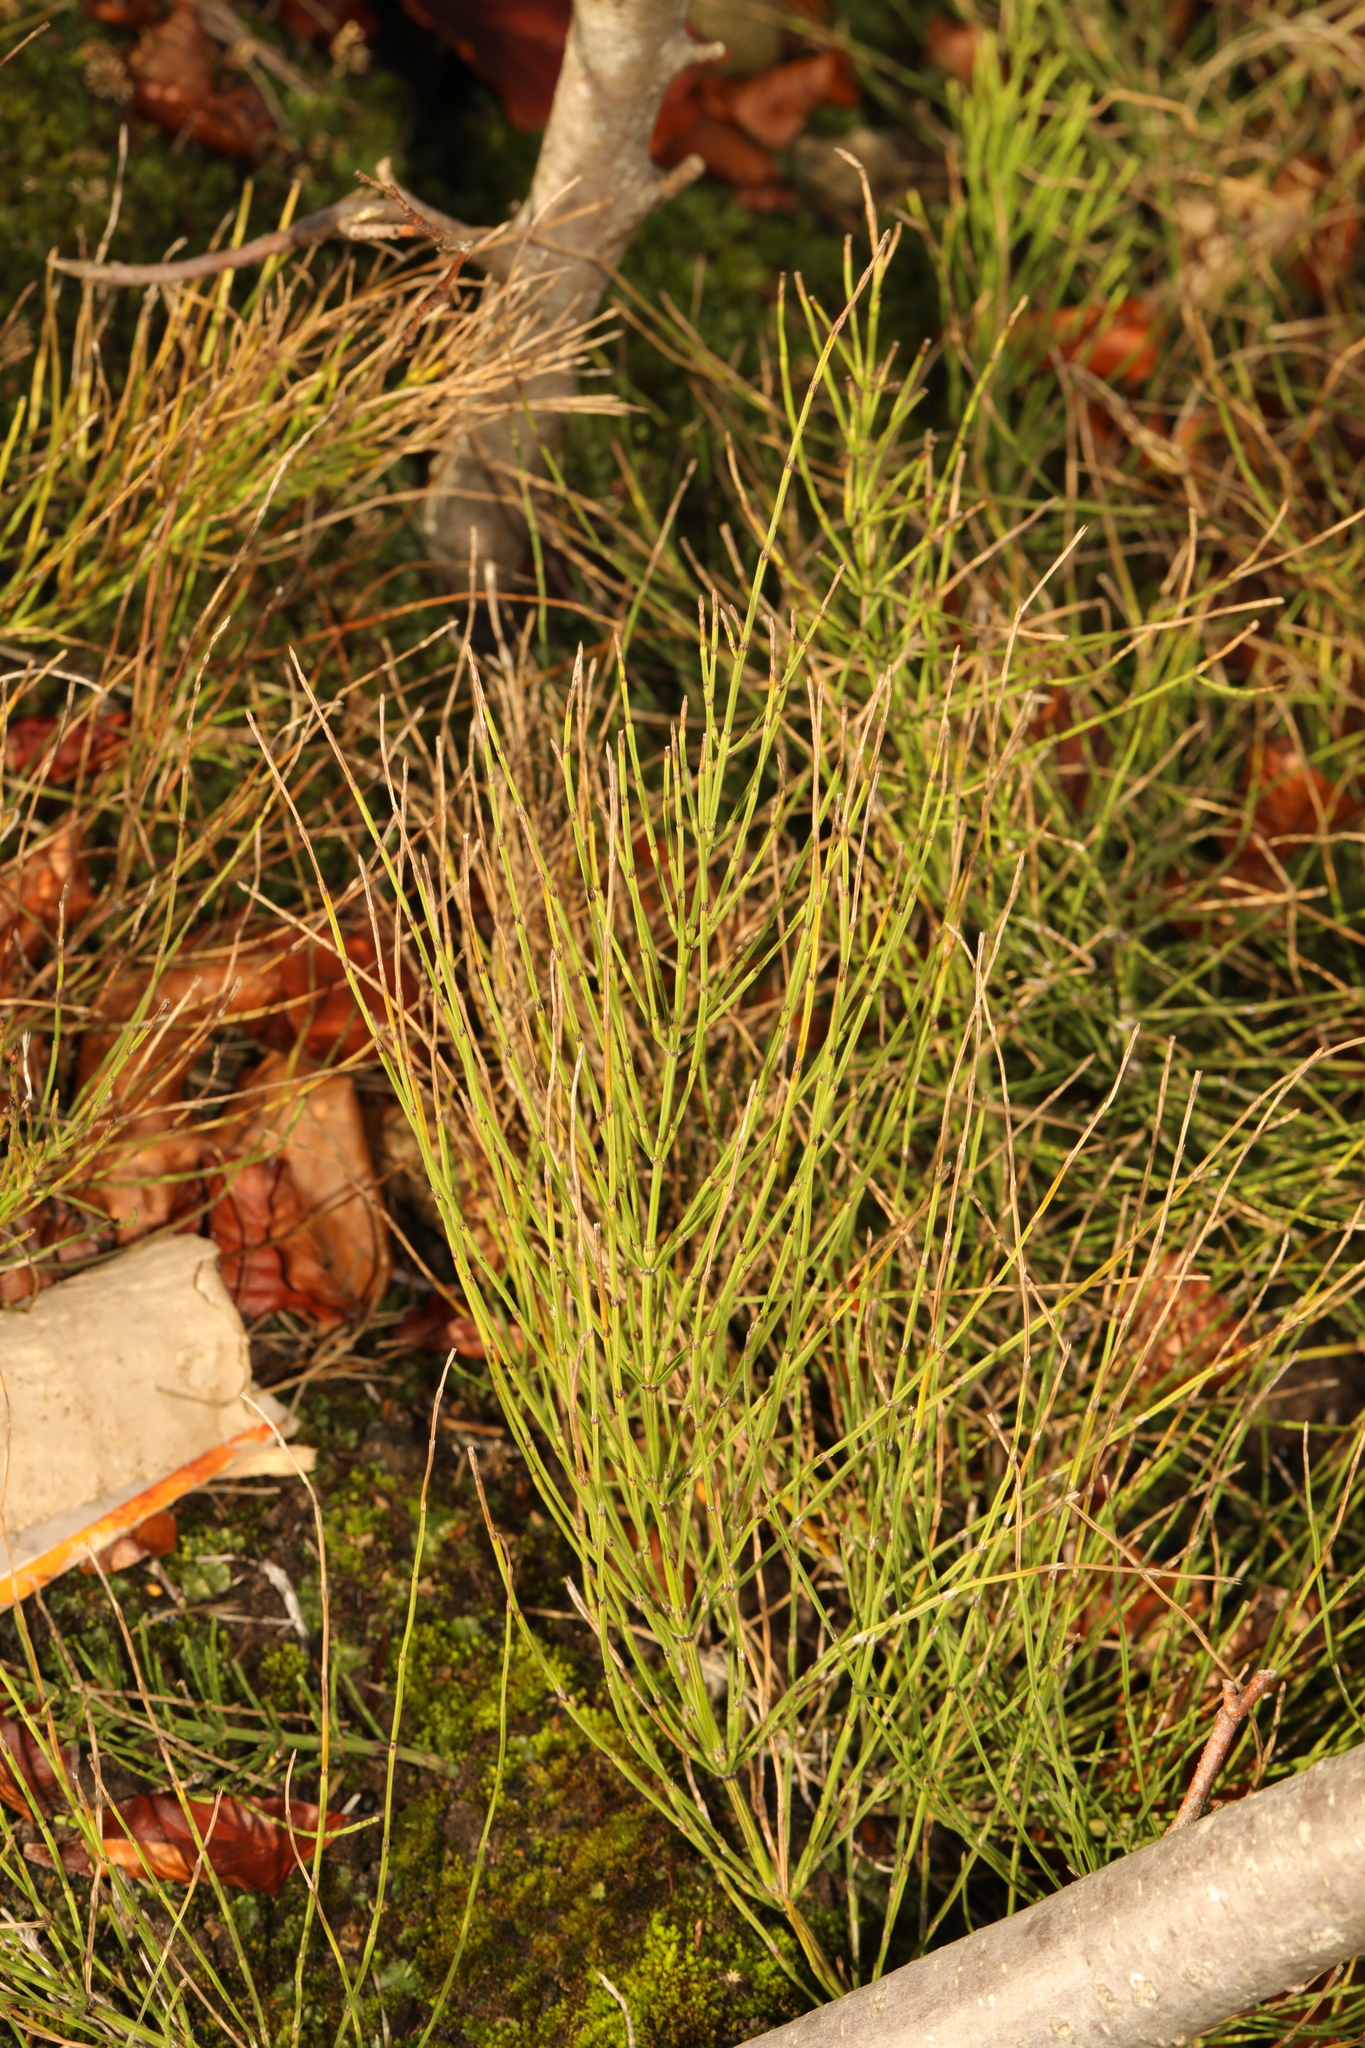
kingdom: Plantae
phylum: Tracheophyta
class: Polypodiopsida
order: Equisetales
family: Equisetaceae
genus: Equisetum
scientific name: Equisetum arvense
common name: Field horsetail
